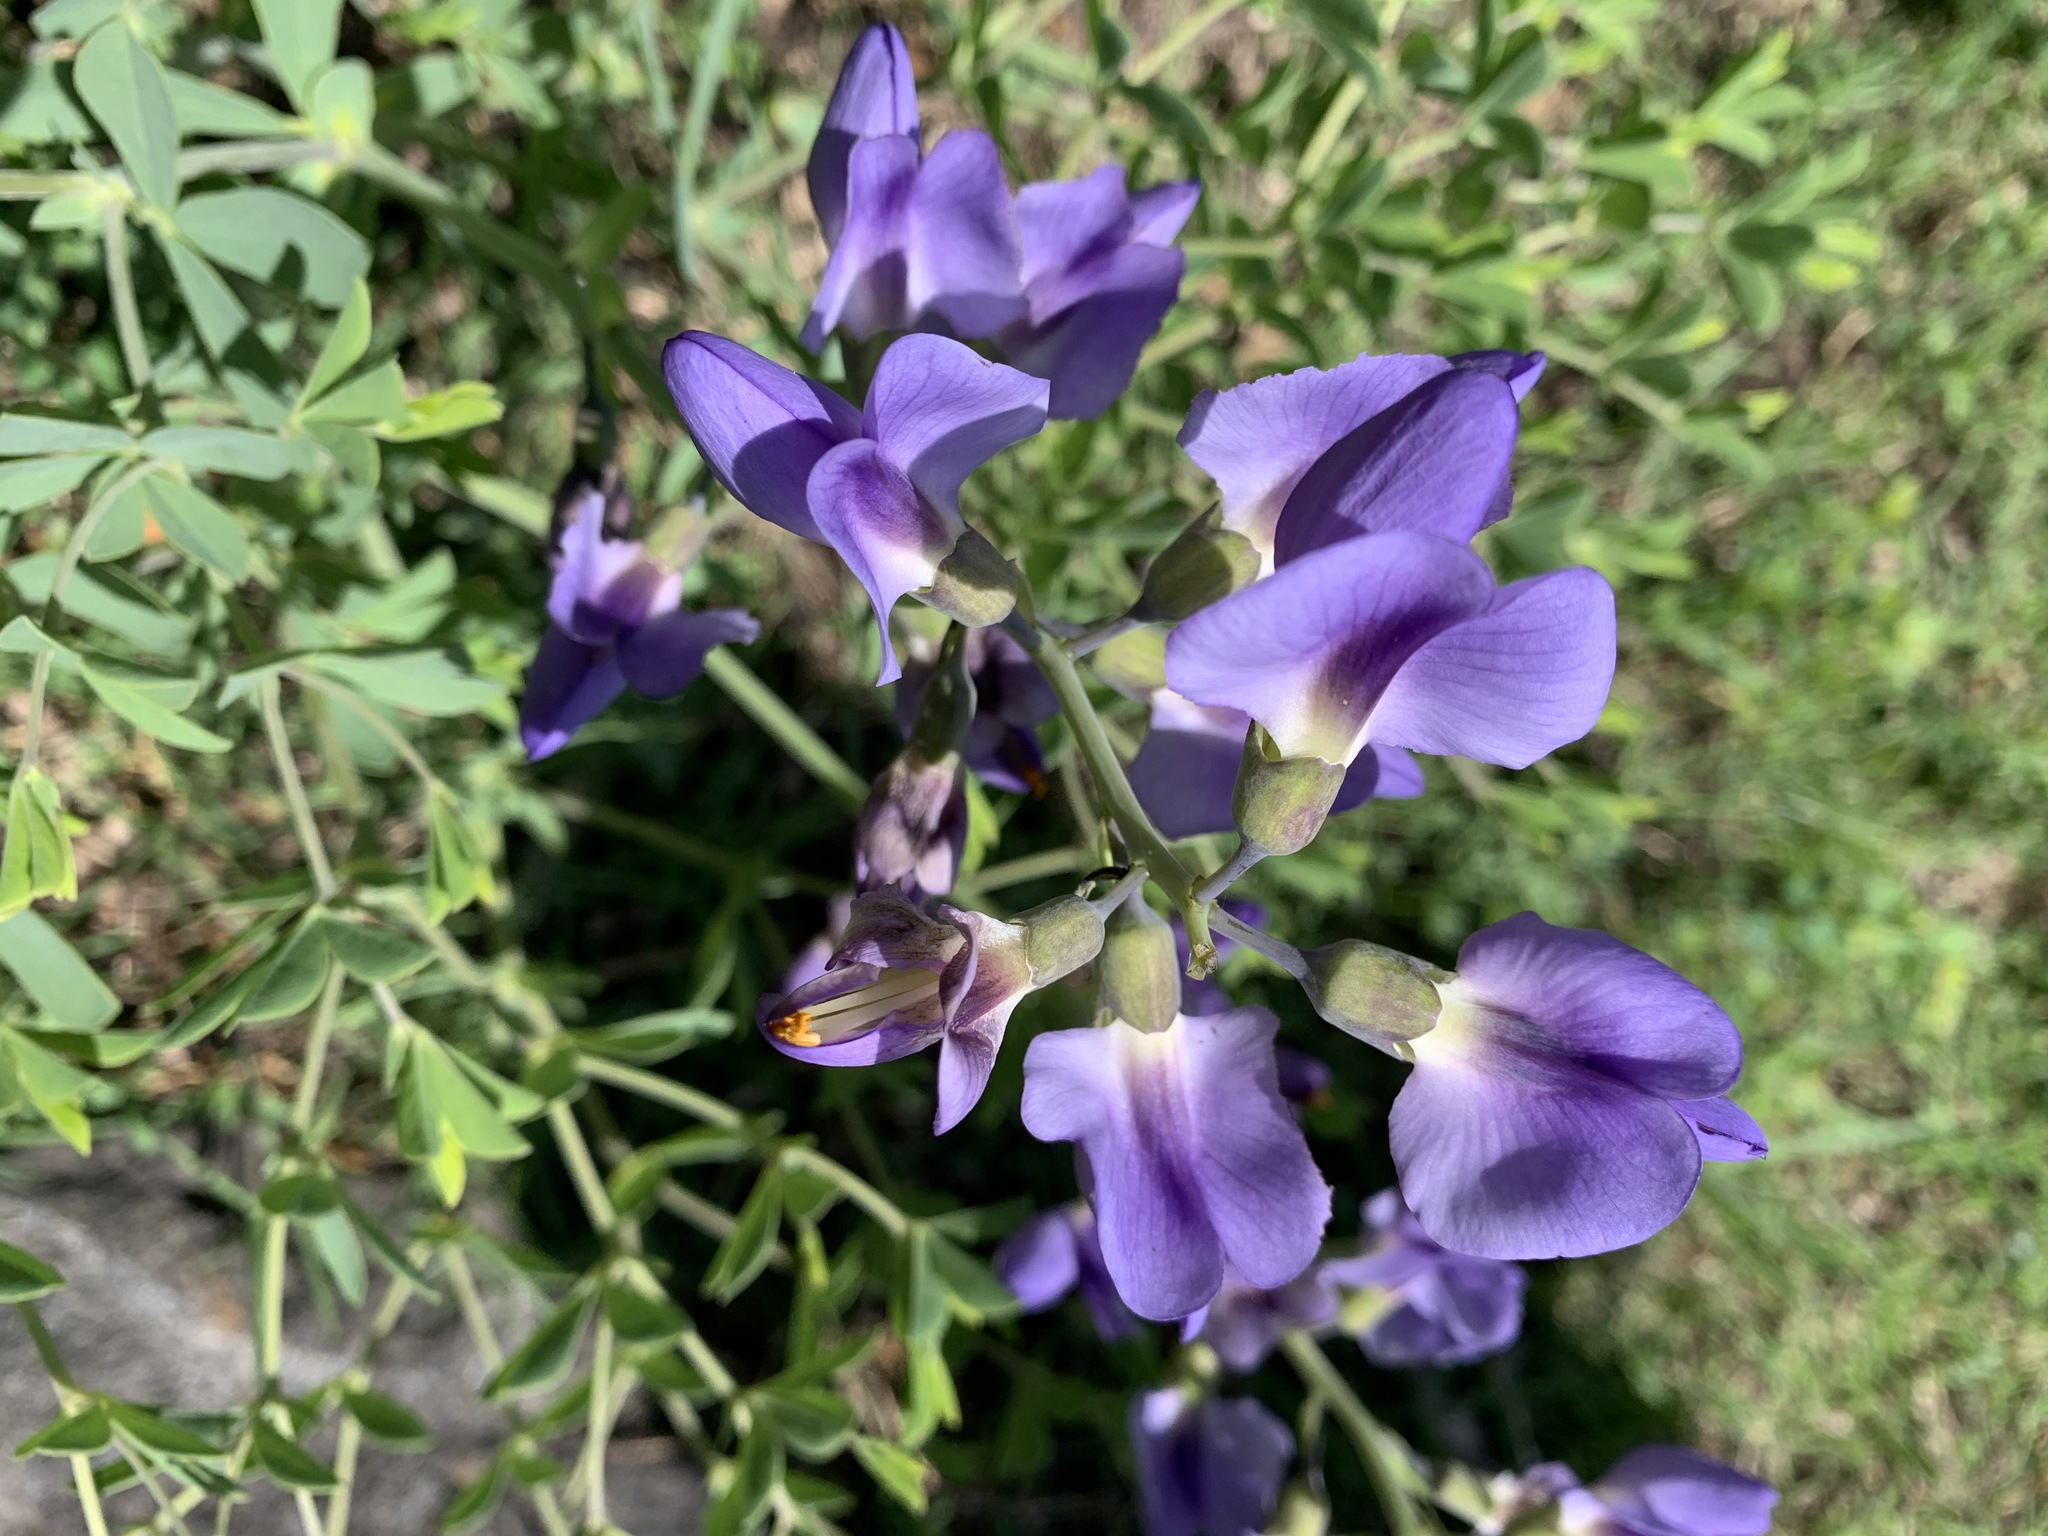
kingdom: Plantae
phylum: Tracheophyta
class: Magnoliopsida
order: Fabales
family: Fabaceae
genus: Baptisia
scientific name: Baptisia australis
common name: Blue false indigo
